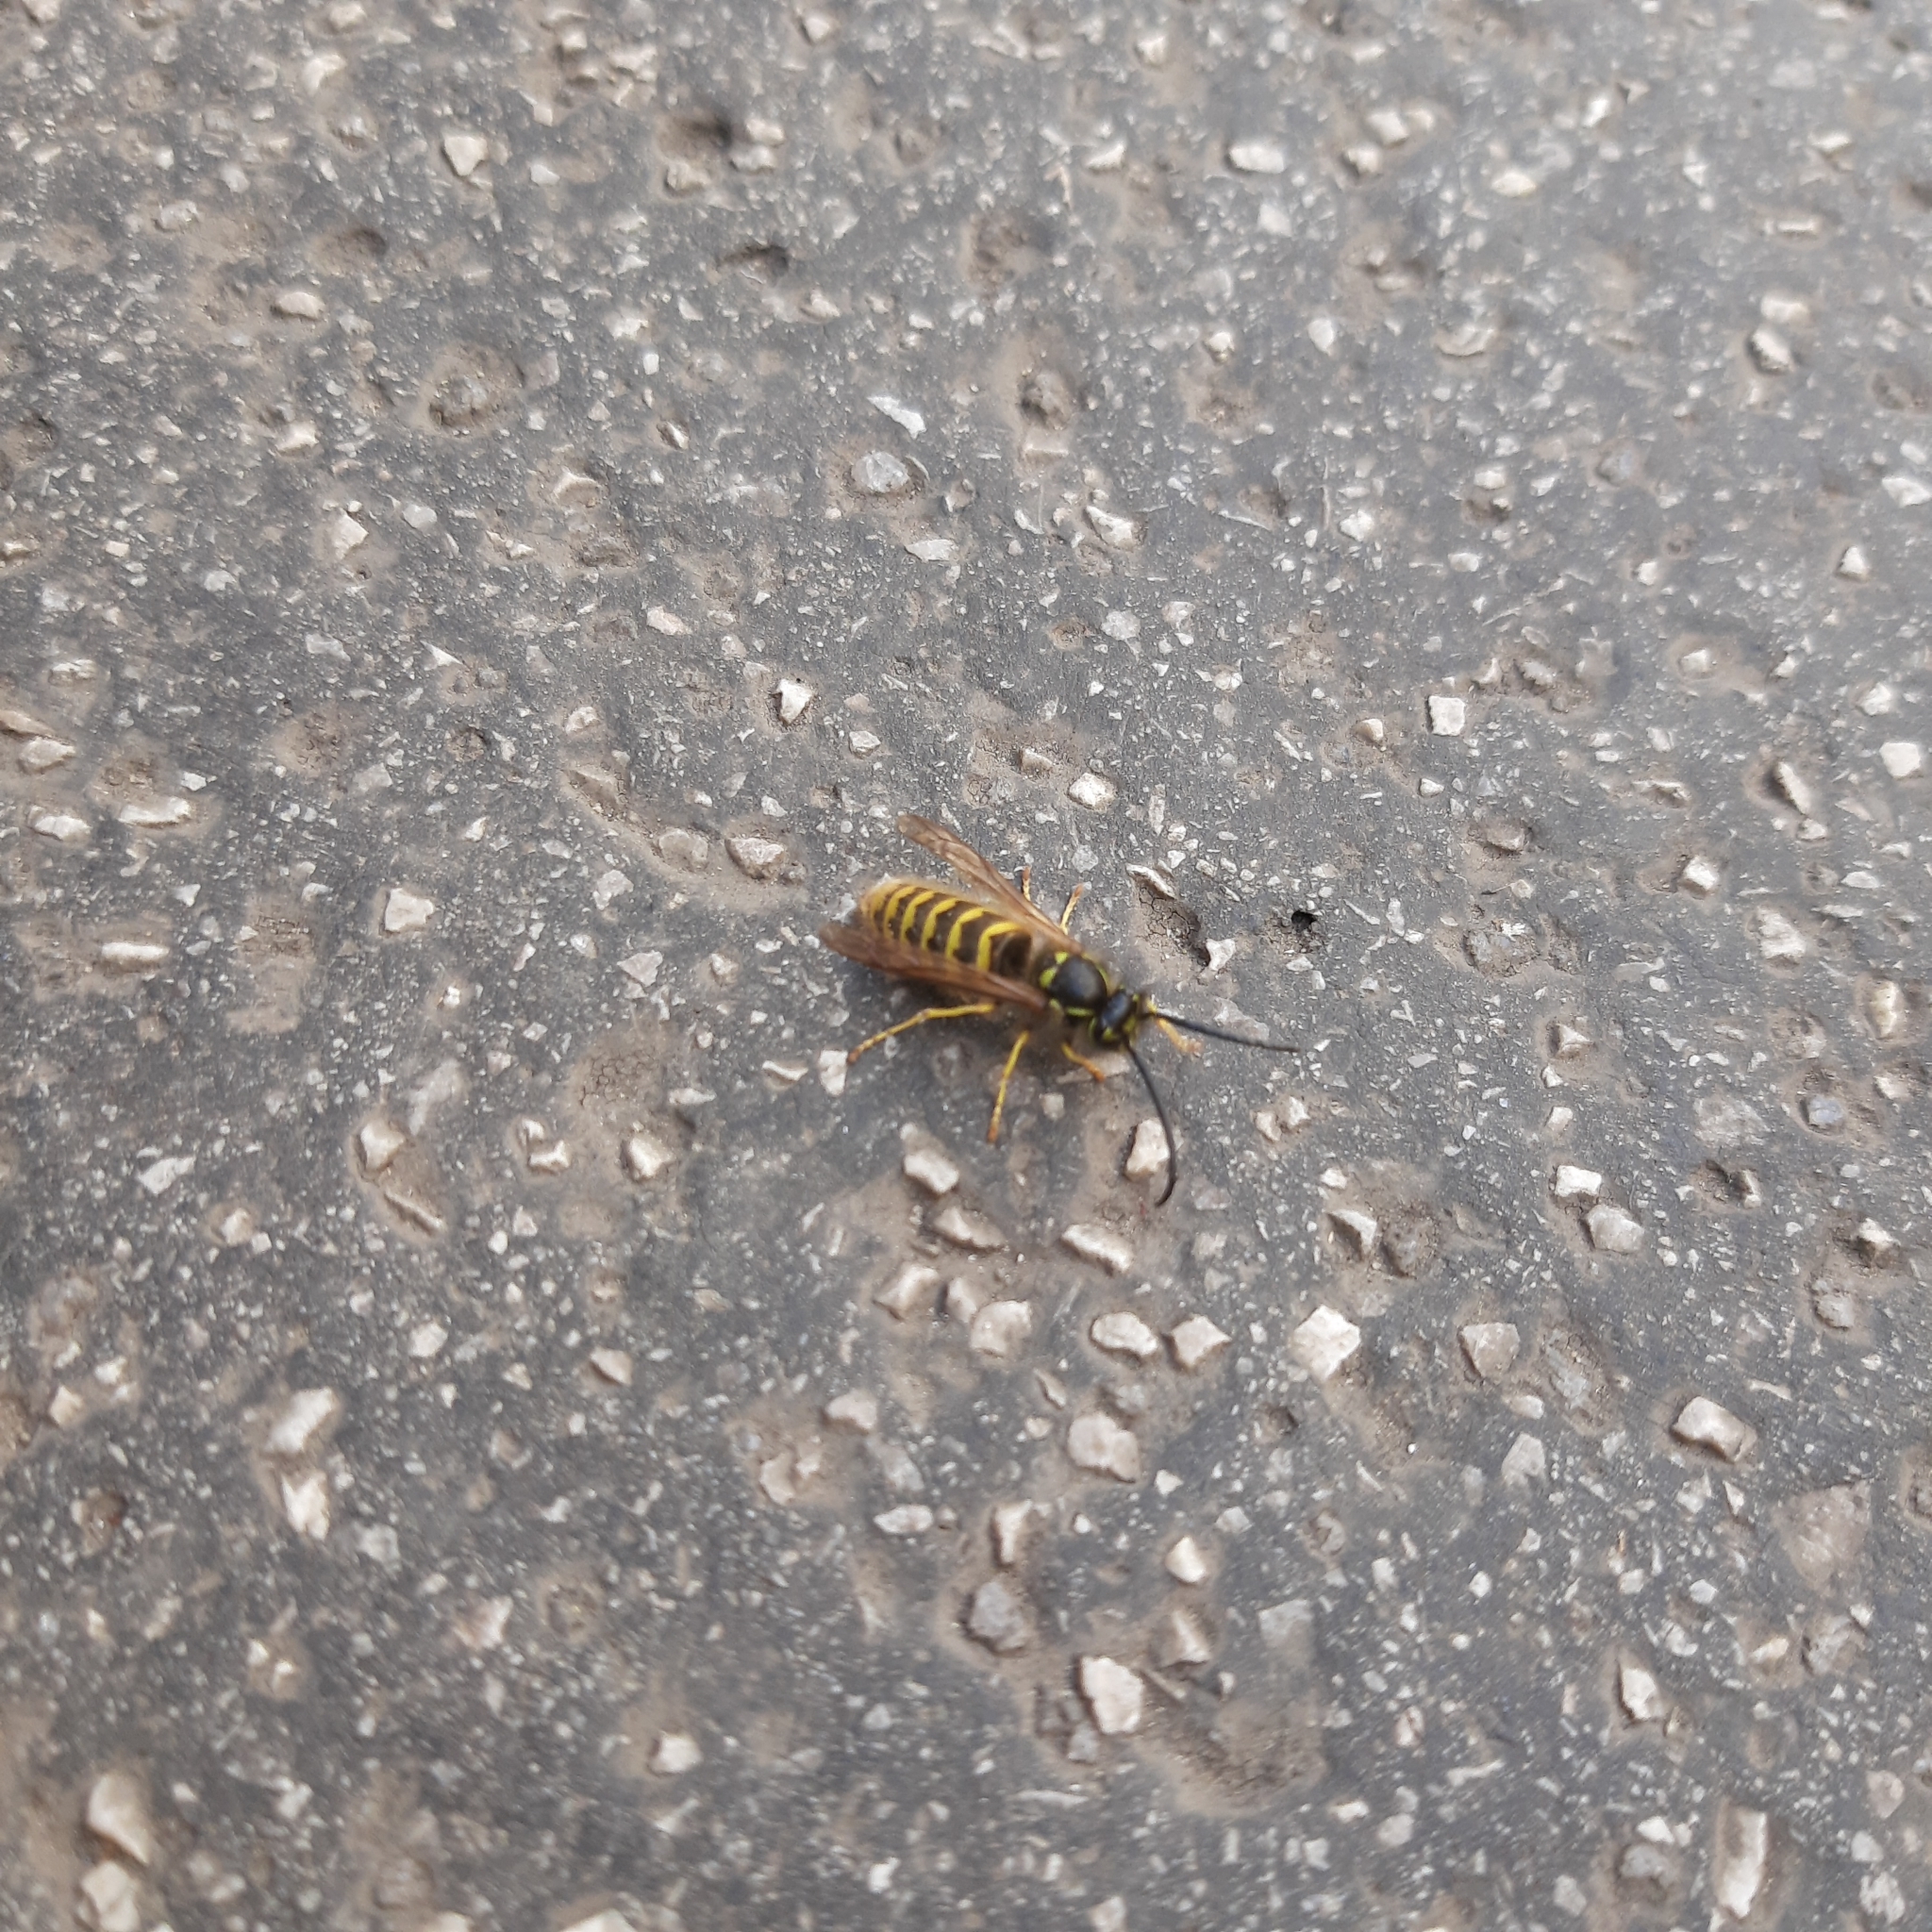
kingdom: Animalia
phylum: Arthropoda
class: Insecta
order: Hymenoptera
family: Vespidae
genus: Vespula
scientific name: Vespula vulgaris
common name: Common wasp
